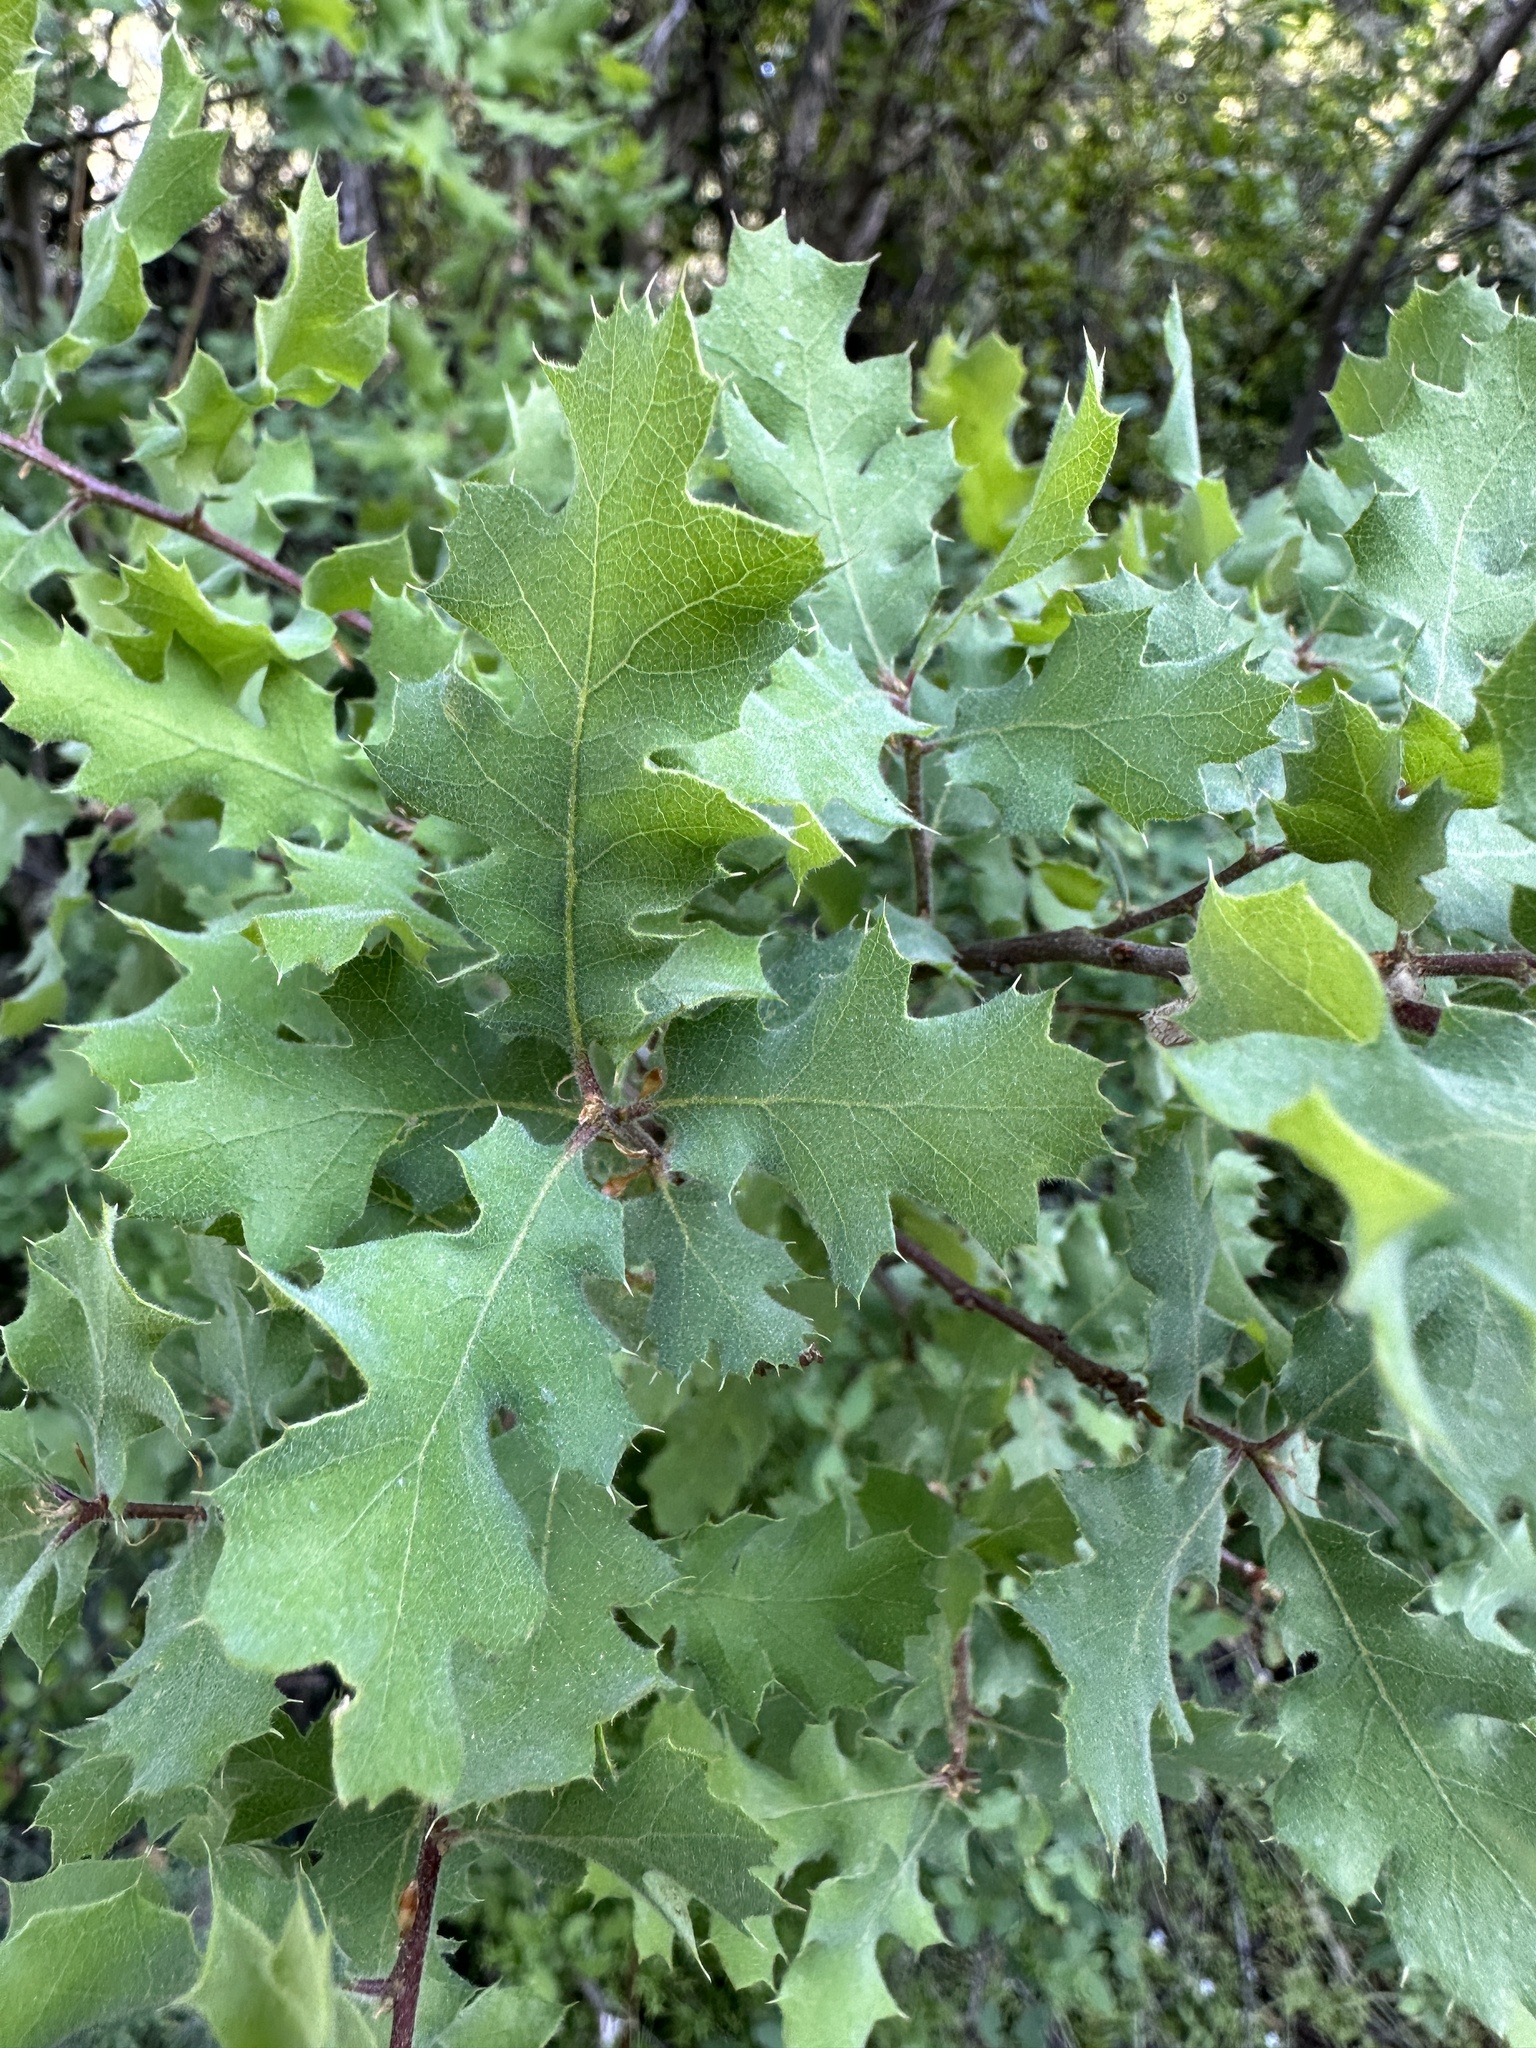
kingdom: Plantae
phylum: Tracheophyta
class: Magnoliopsida
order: Fagales
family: Fagaceae
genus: Quercus
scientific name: Quercus
